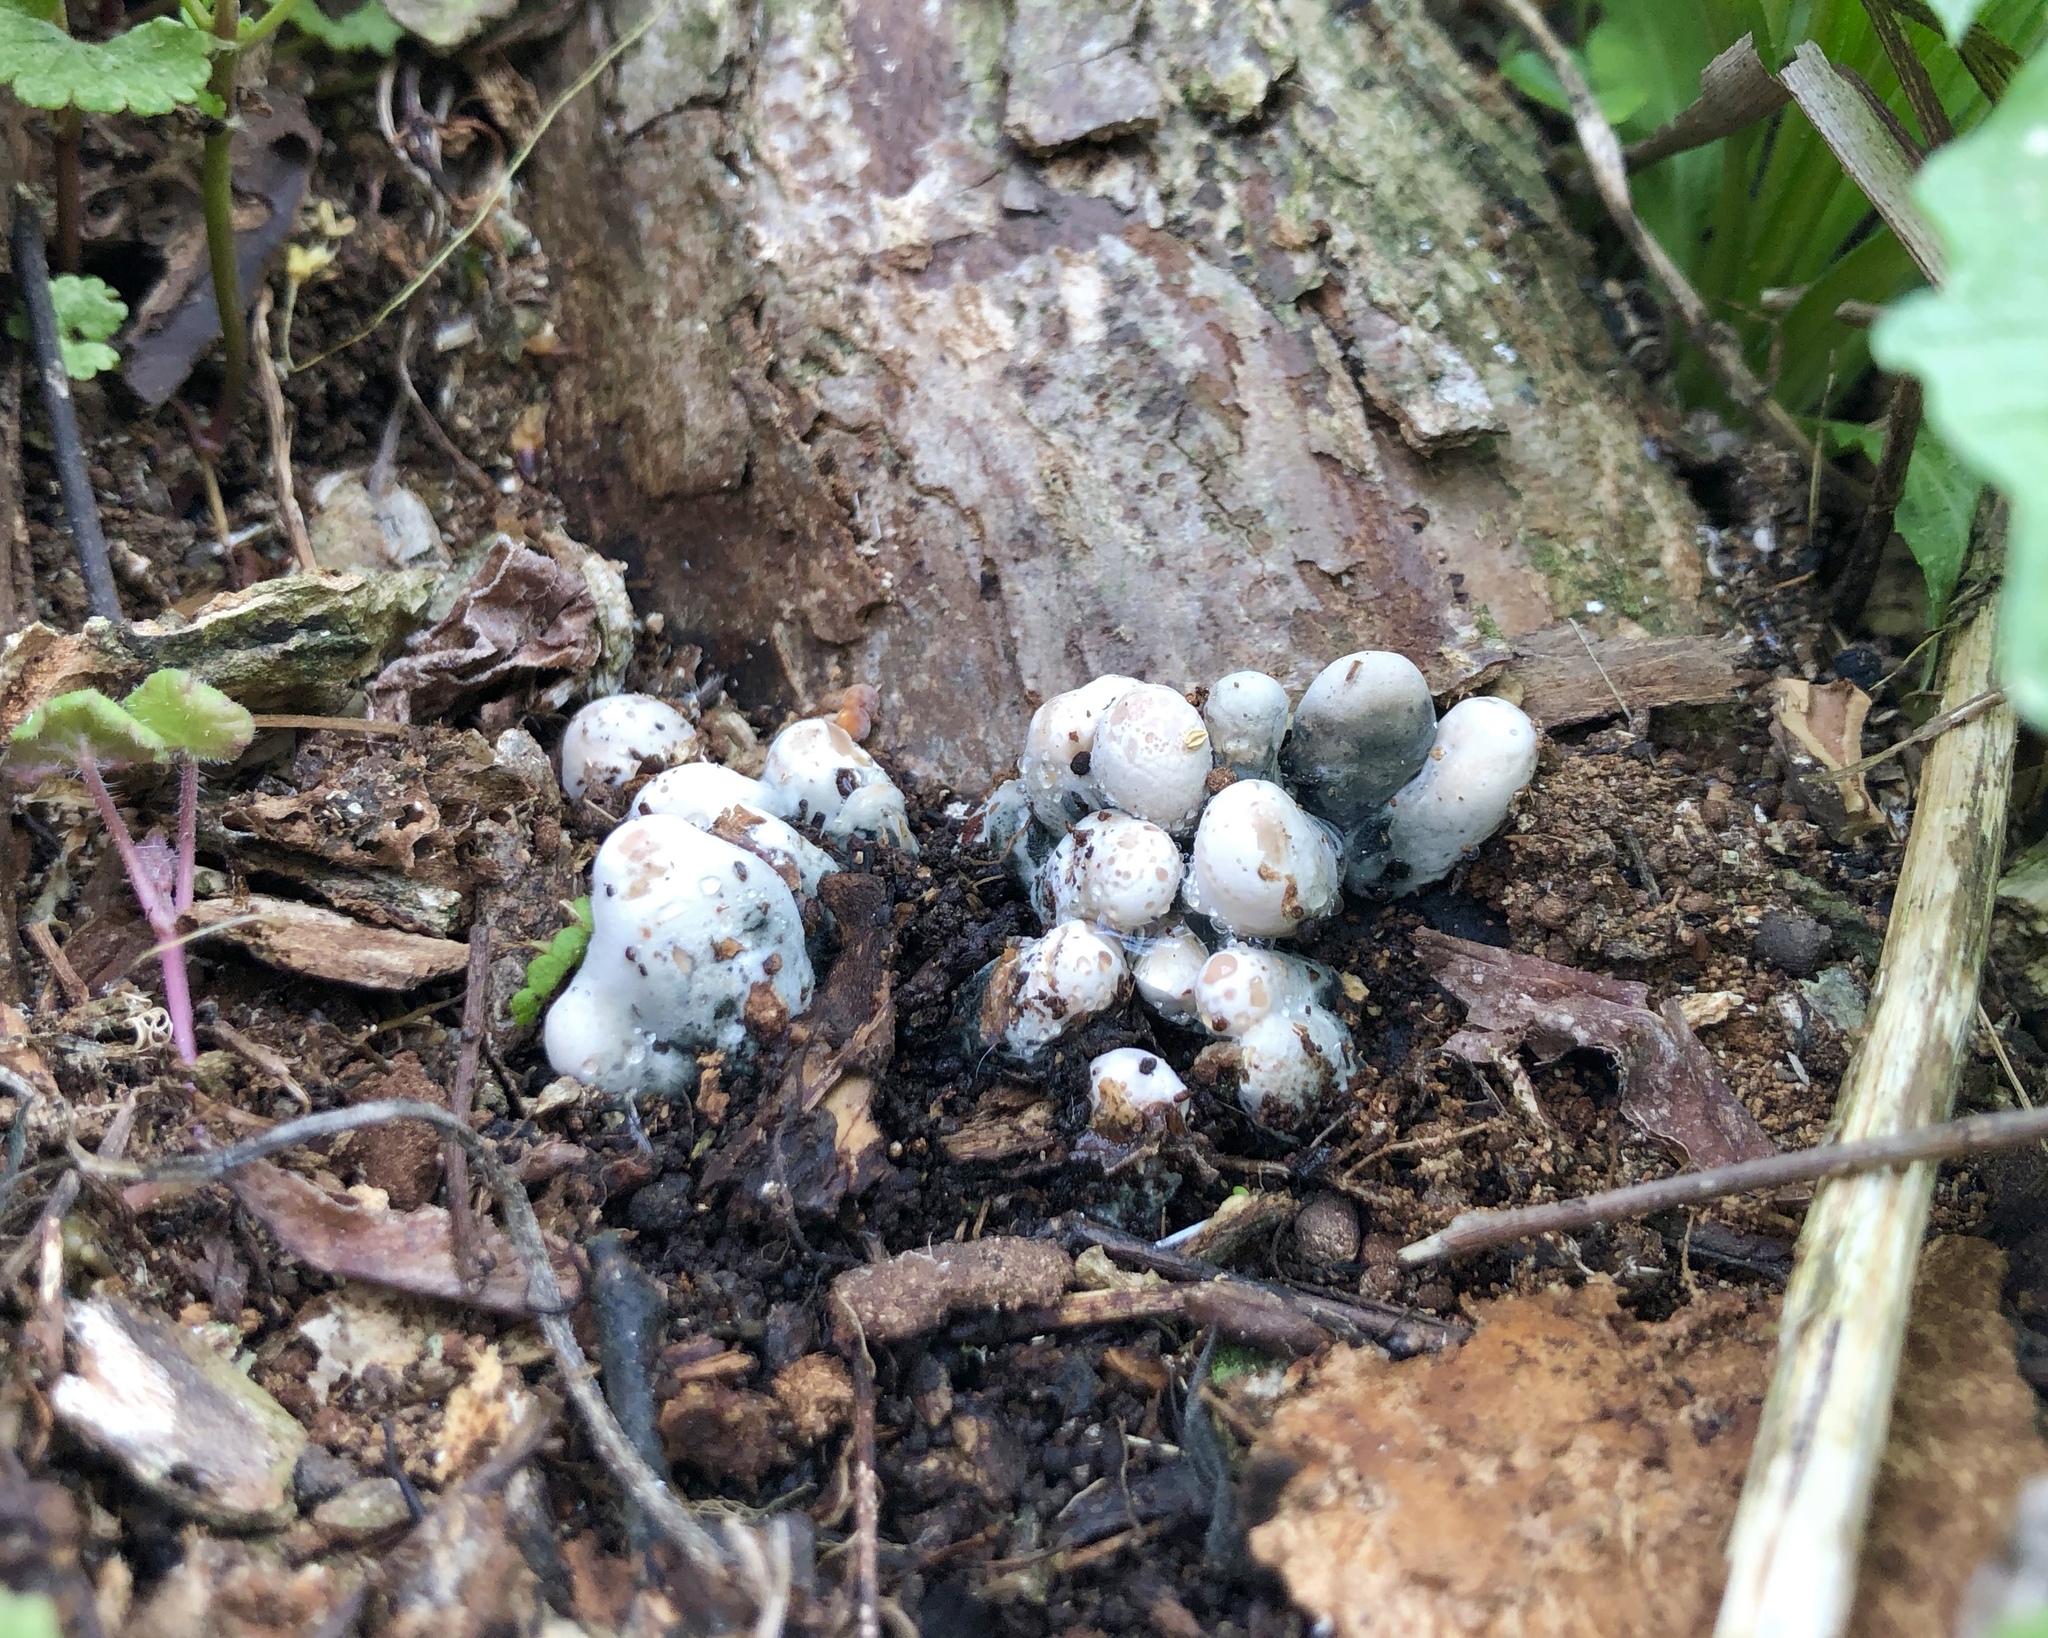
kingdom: Fungi
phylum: Ascomycota
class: Sordariomycetes
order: Xylariales
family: Xylariaceae
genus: Xylaria
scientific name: Xylaria polymorpha
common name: Dead man's fingers
